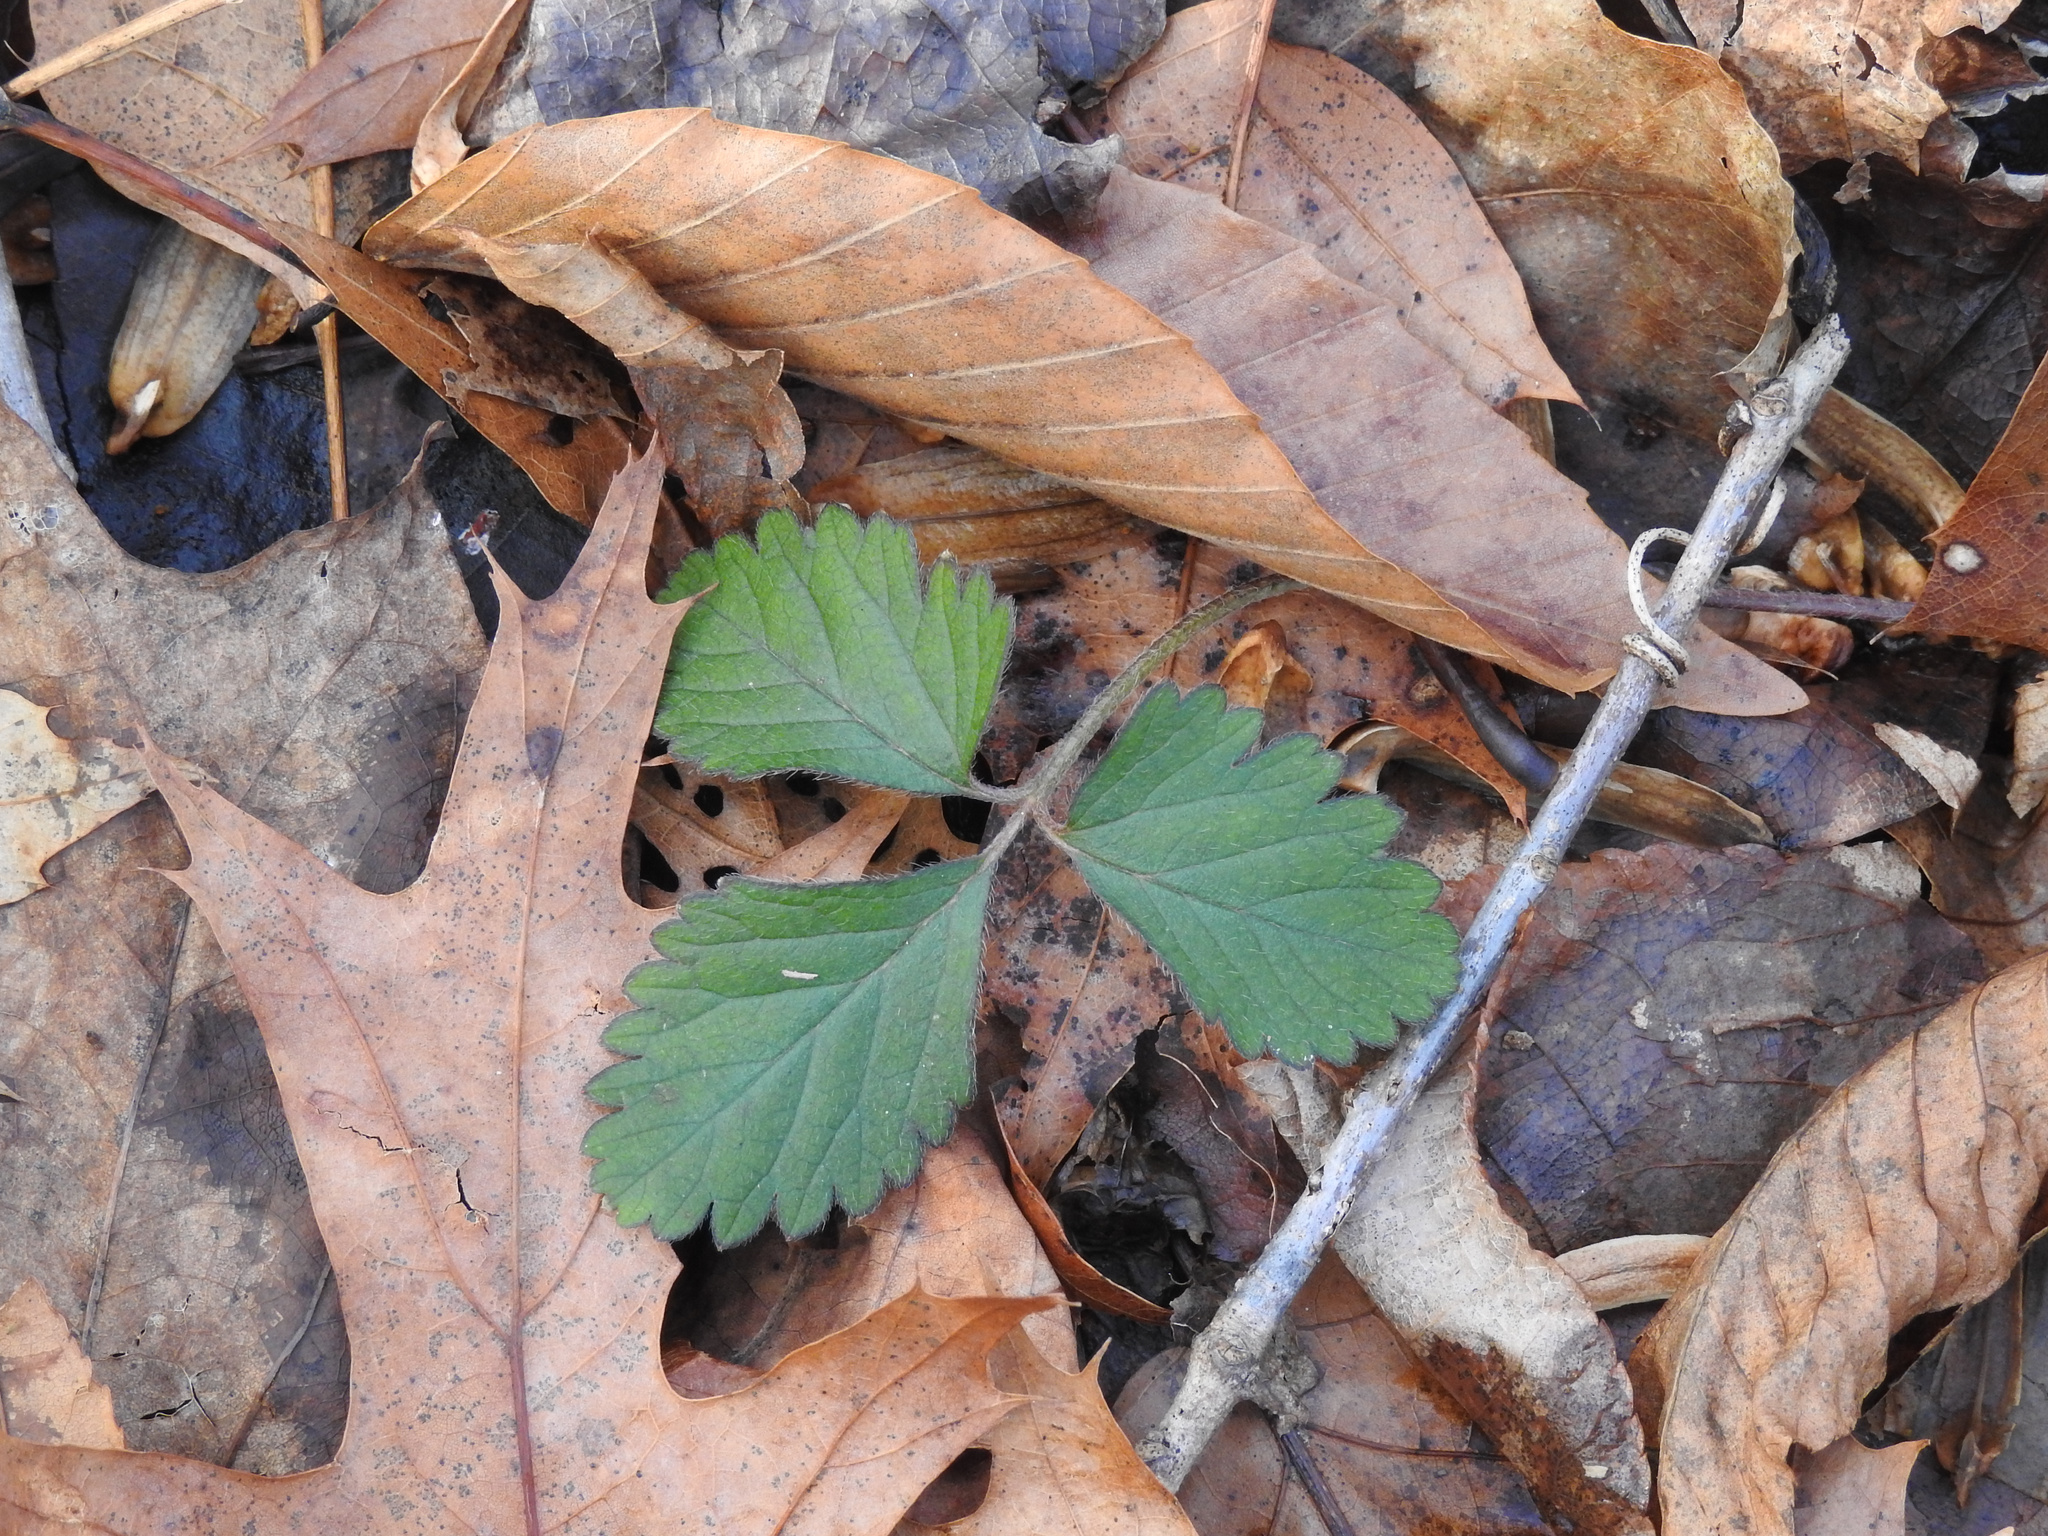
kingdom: Plantae
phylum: Tracheophyta
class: Magnoliopsida
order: Rosales
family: Rosaceae
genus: Potentilla
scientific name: Potentilla indica
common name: Yellow-flowered strawberry
